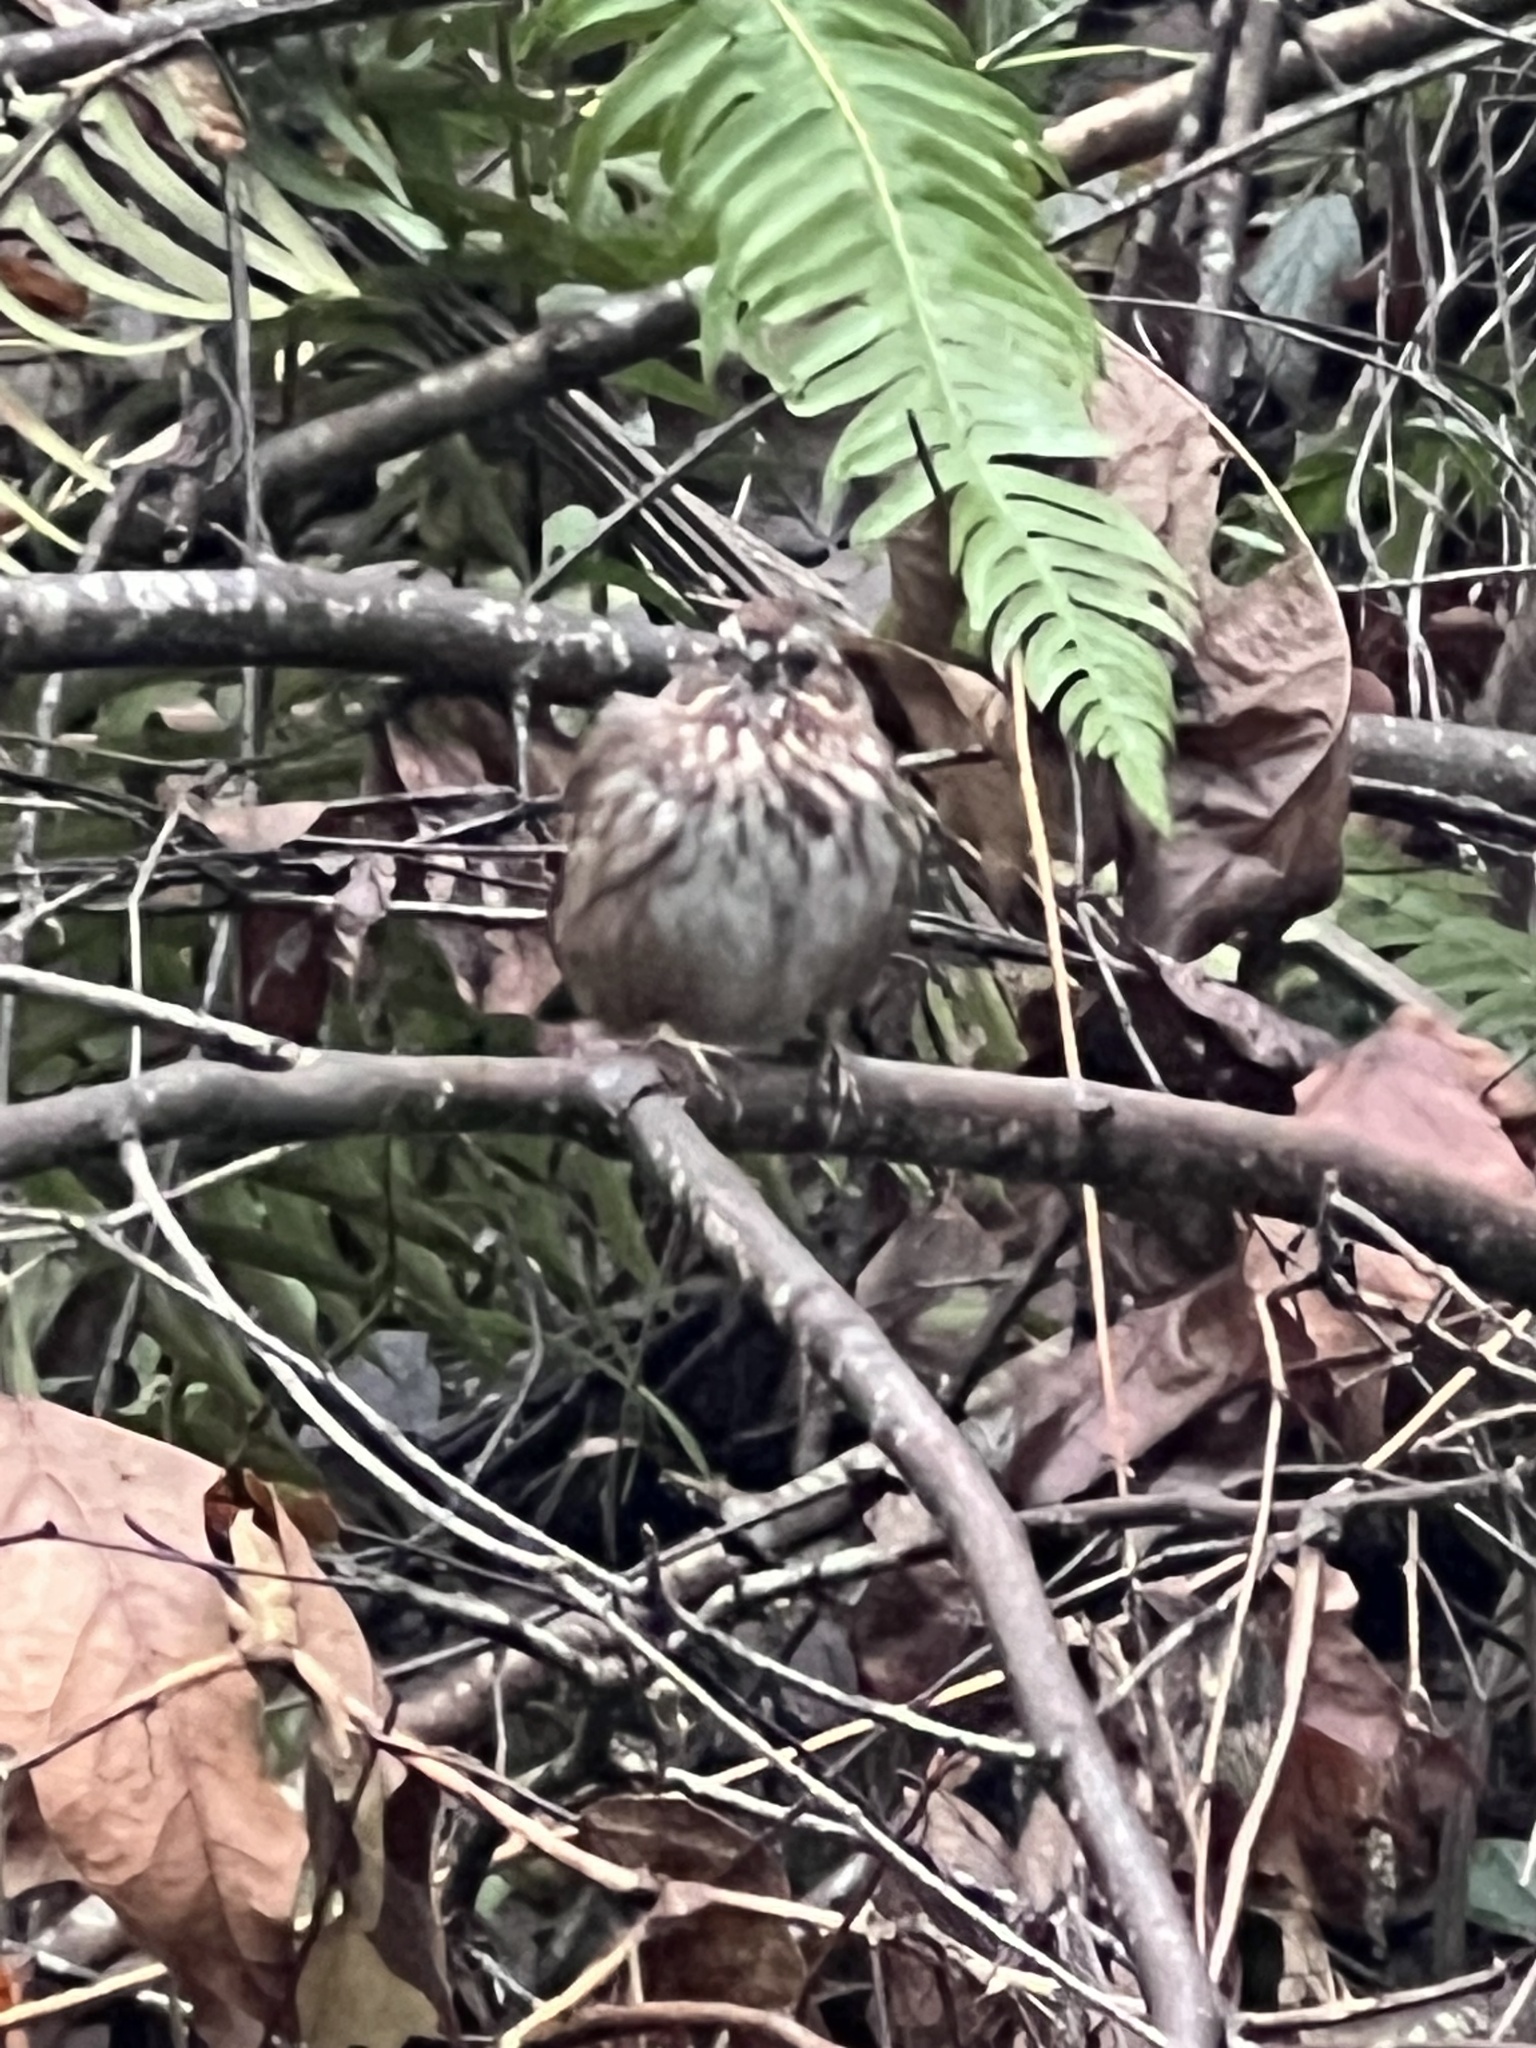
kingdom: Animalia
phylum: Chordata
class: Aves
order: Passeriformes
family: Passerellidae
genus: Melospiza
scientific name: Melospiza melodia
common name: Song sparrow
